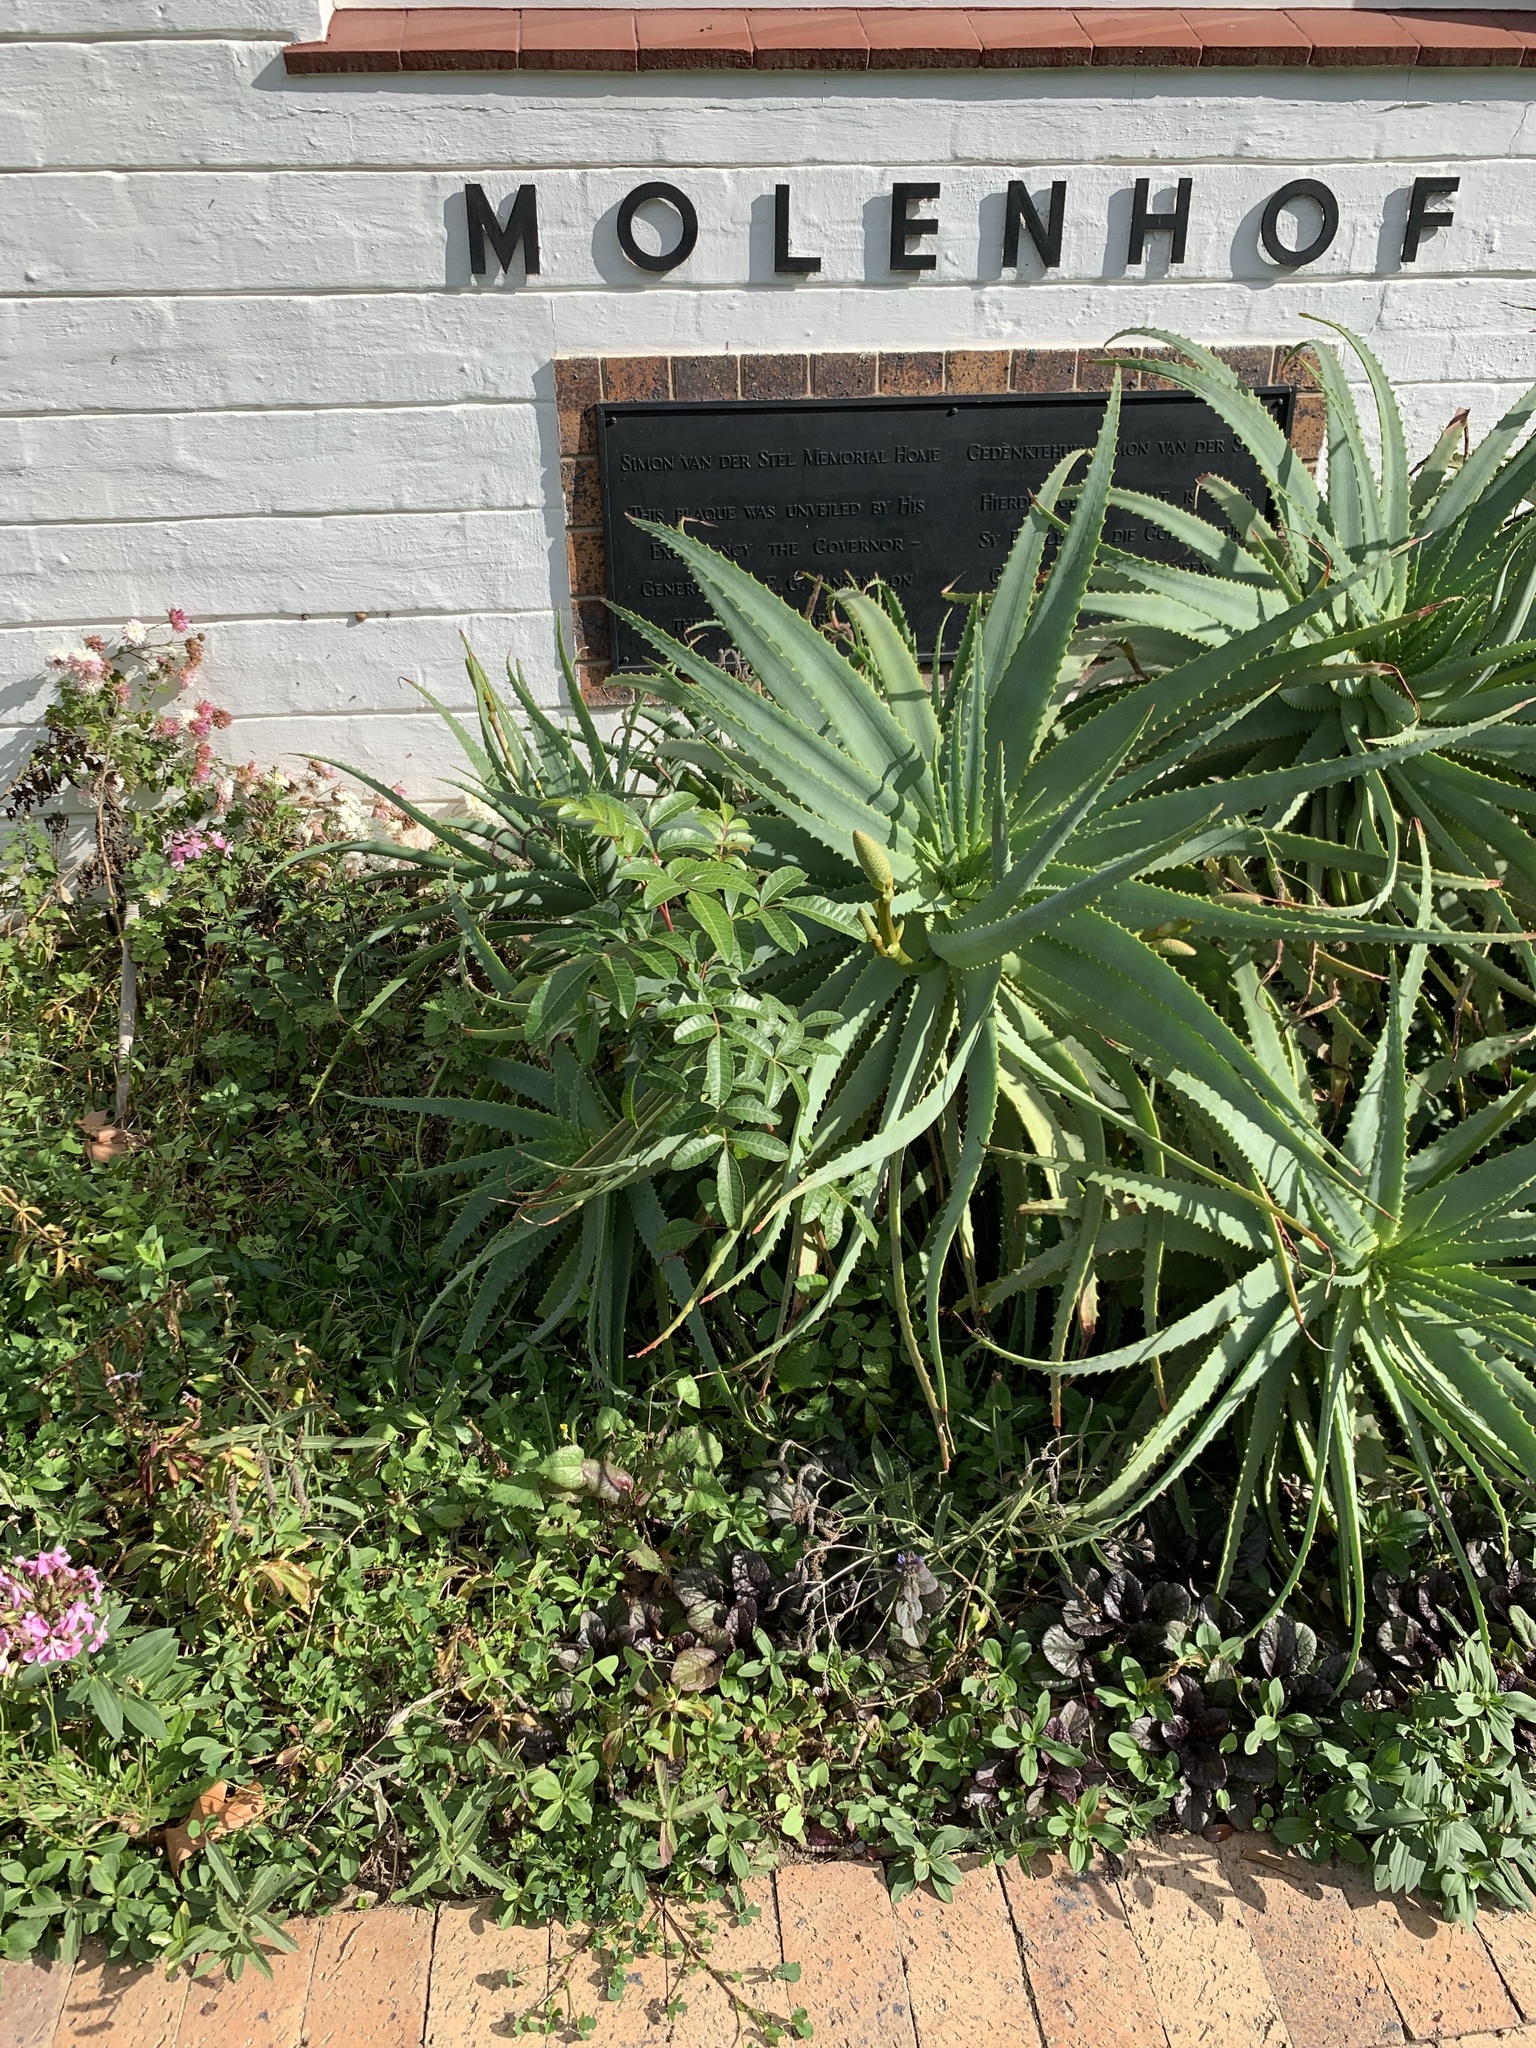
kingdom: Plantae
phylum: Tracheophyta
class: Magnoliopsida
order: Sapindales
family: Anacardiaceae
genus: Schinus
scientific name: Schinus terebinthifolia
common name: Brazilian peppertree
